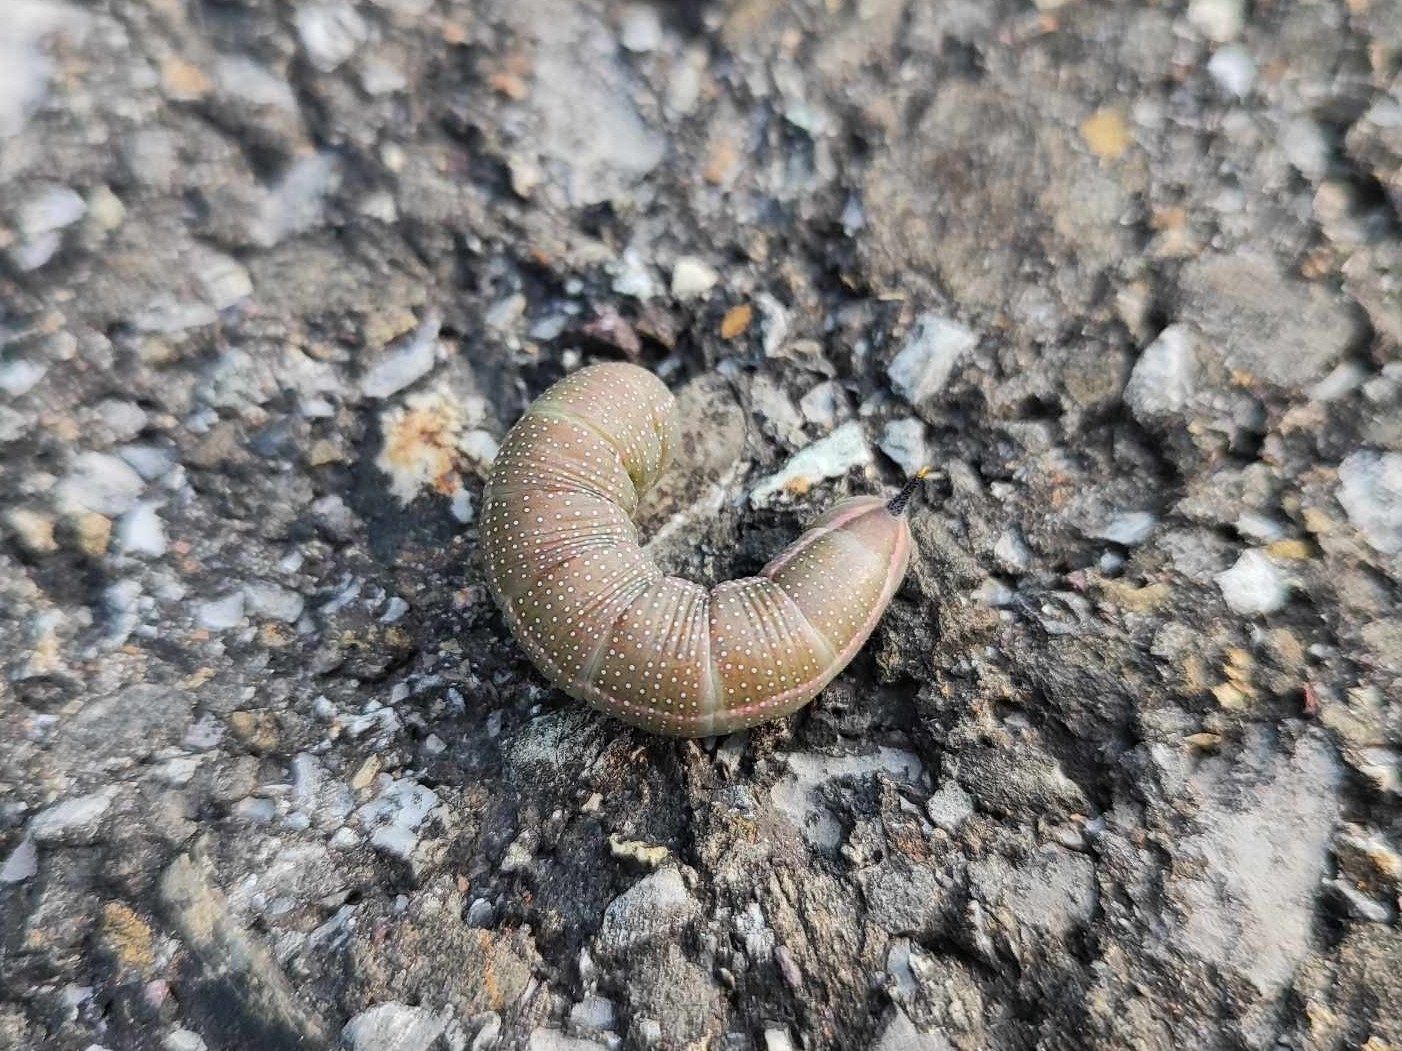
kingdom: Animalia
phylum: Arthropoda
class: Insecta
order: Lepidoptera
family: Sphingidae
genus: Macroglossum
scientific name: Macroglossum stellatarum
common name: Humming-bird hawk-moth
